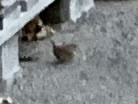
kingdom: Animalia
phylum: Chordata
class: Aves
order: Passeriformes
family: Troglodytidae
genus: Troglodytes
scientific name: Troglodytes troglodytes
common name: Eurasian wren
